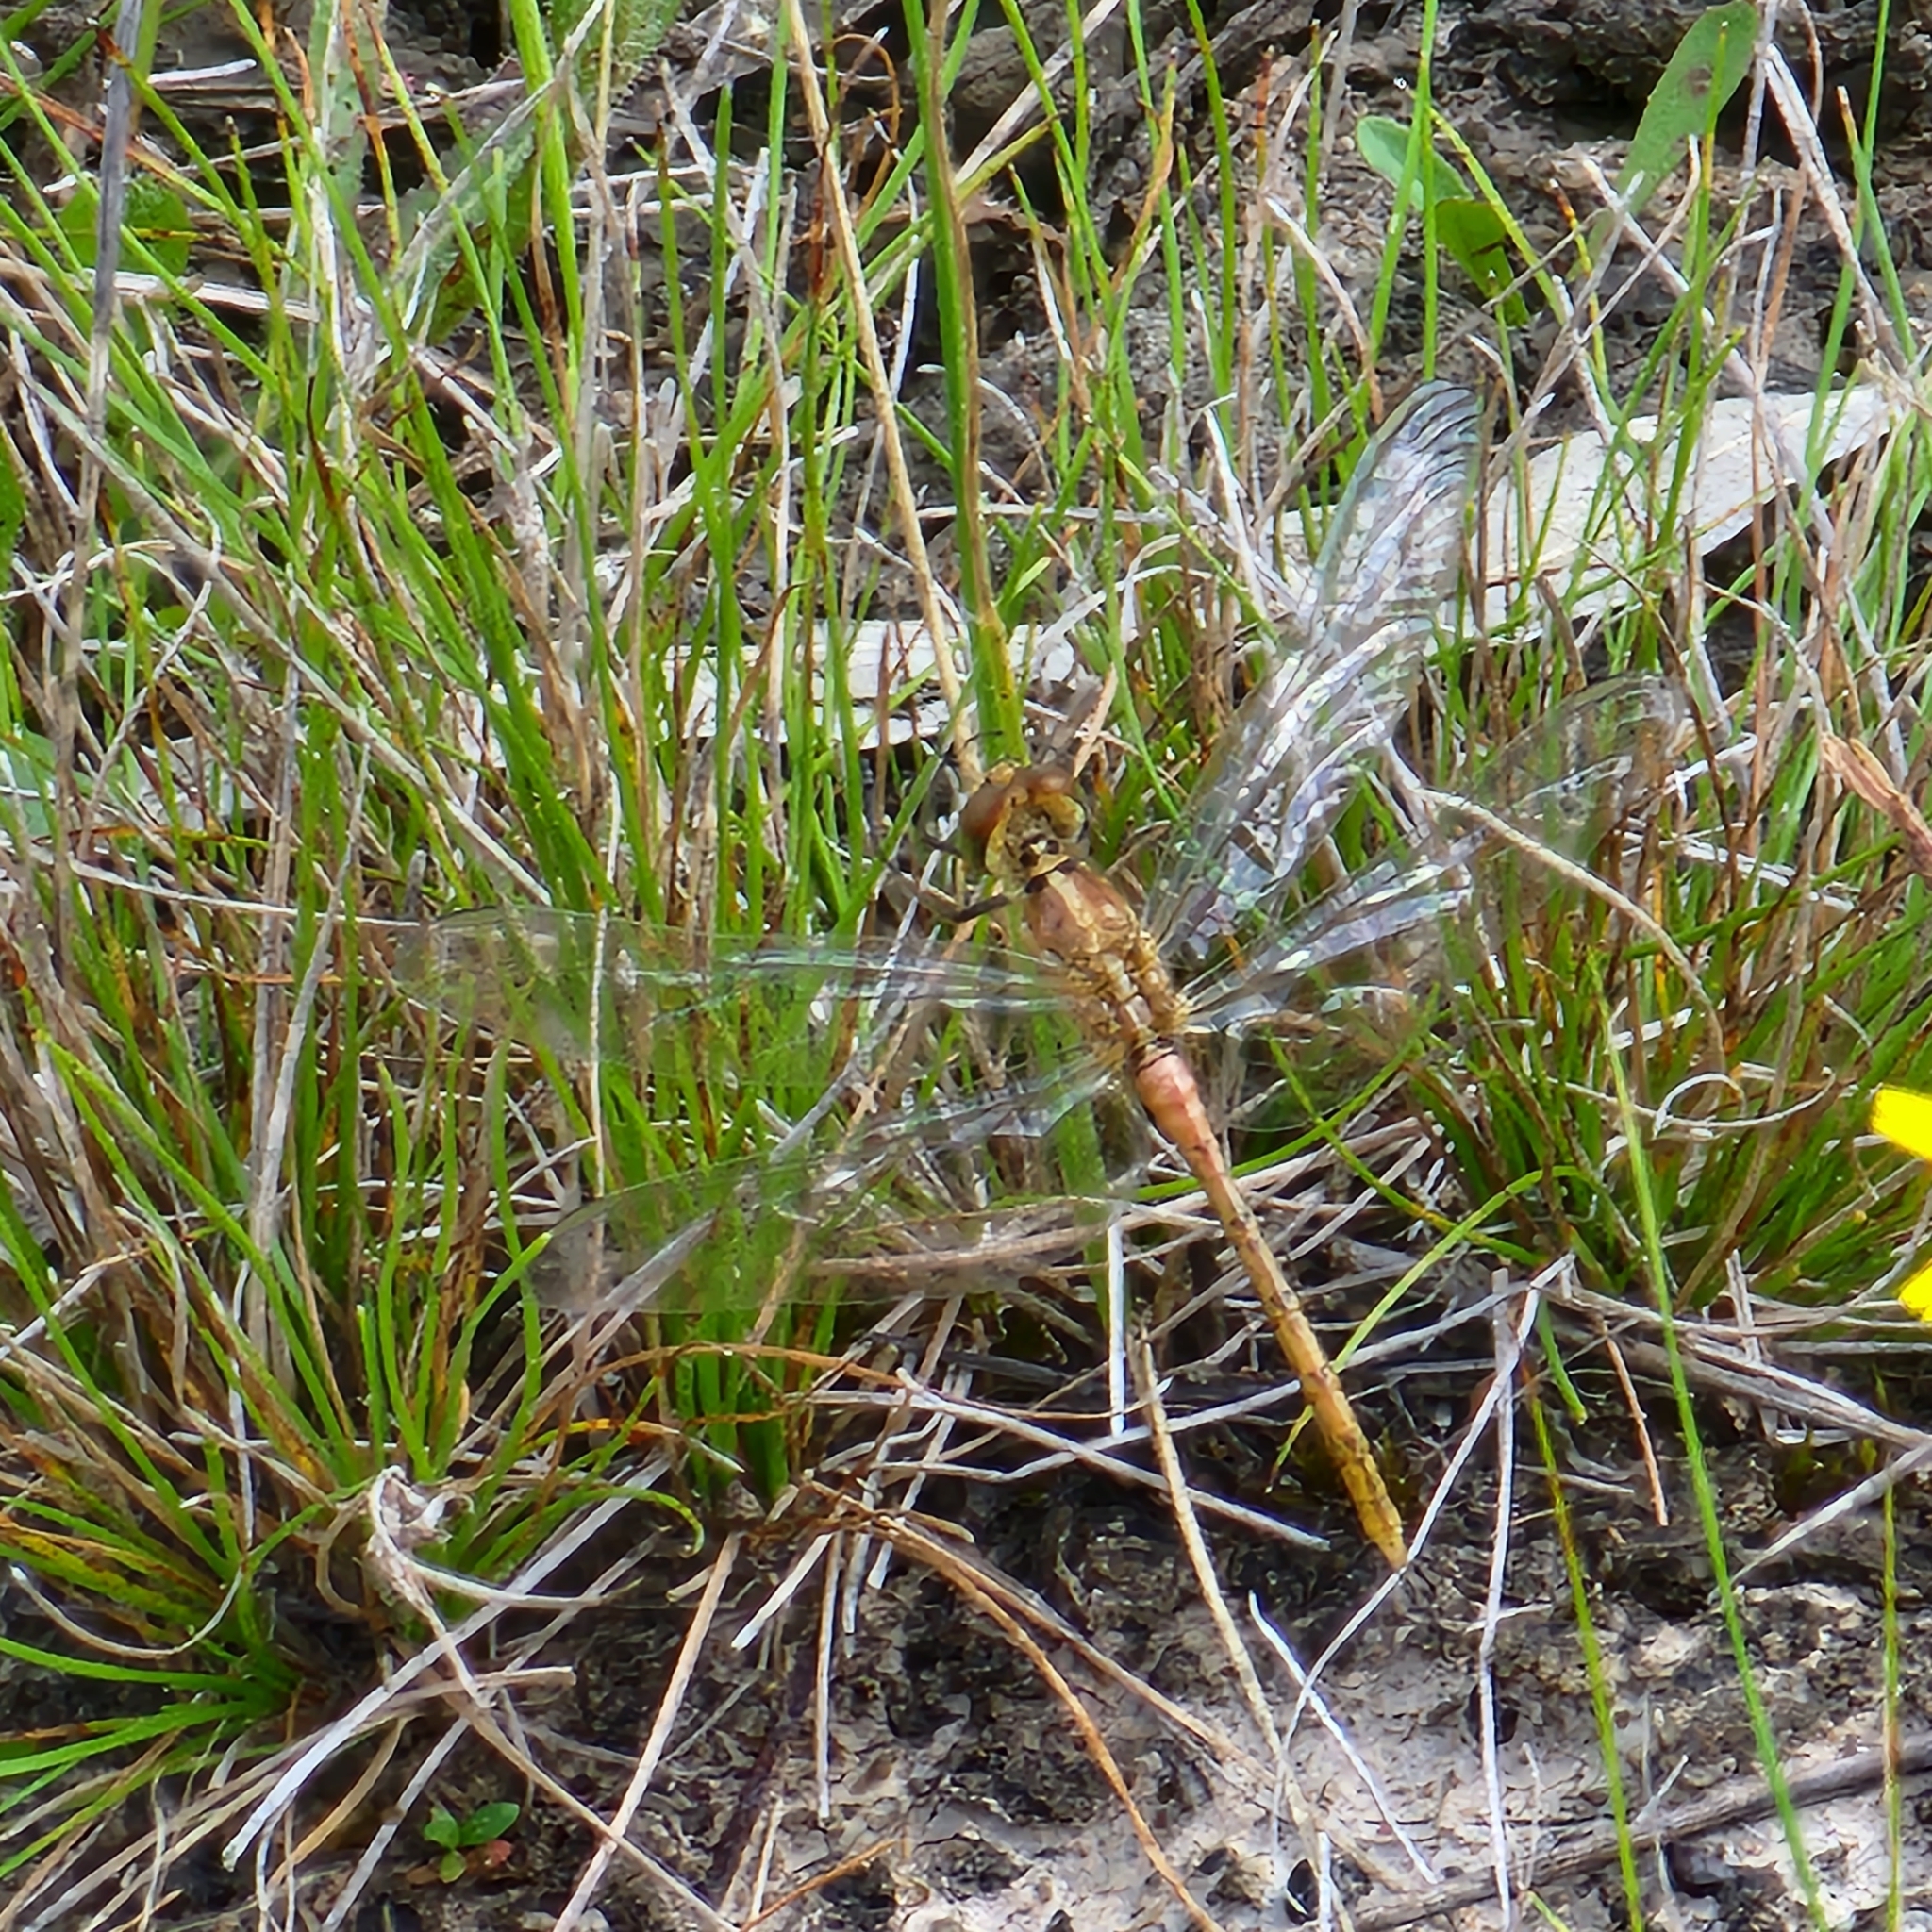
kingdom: Animalia
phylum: Arthropoda
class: Insecta
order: Odonata
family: Libellulidae
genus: Diplacodes
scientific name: Diplacodes bipunctata
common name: Red percher dragonfly
